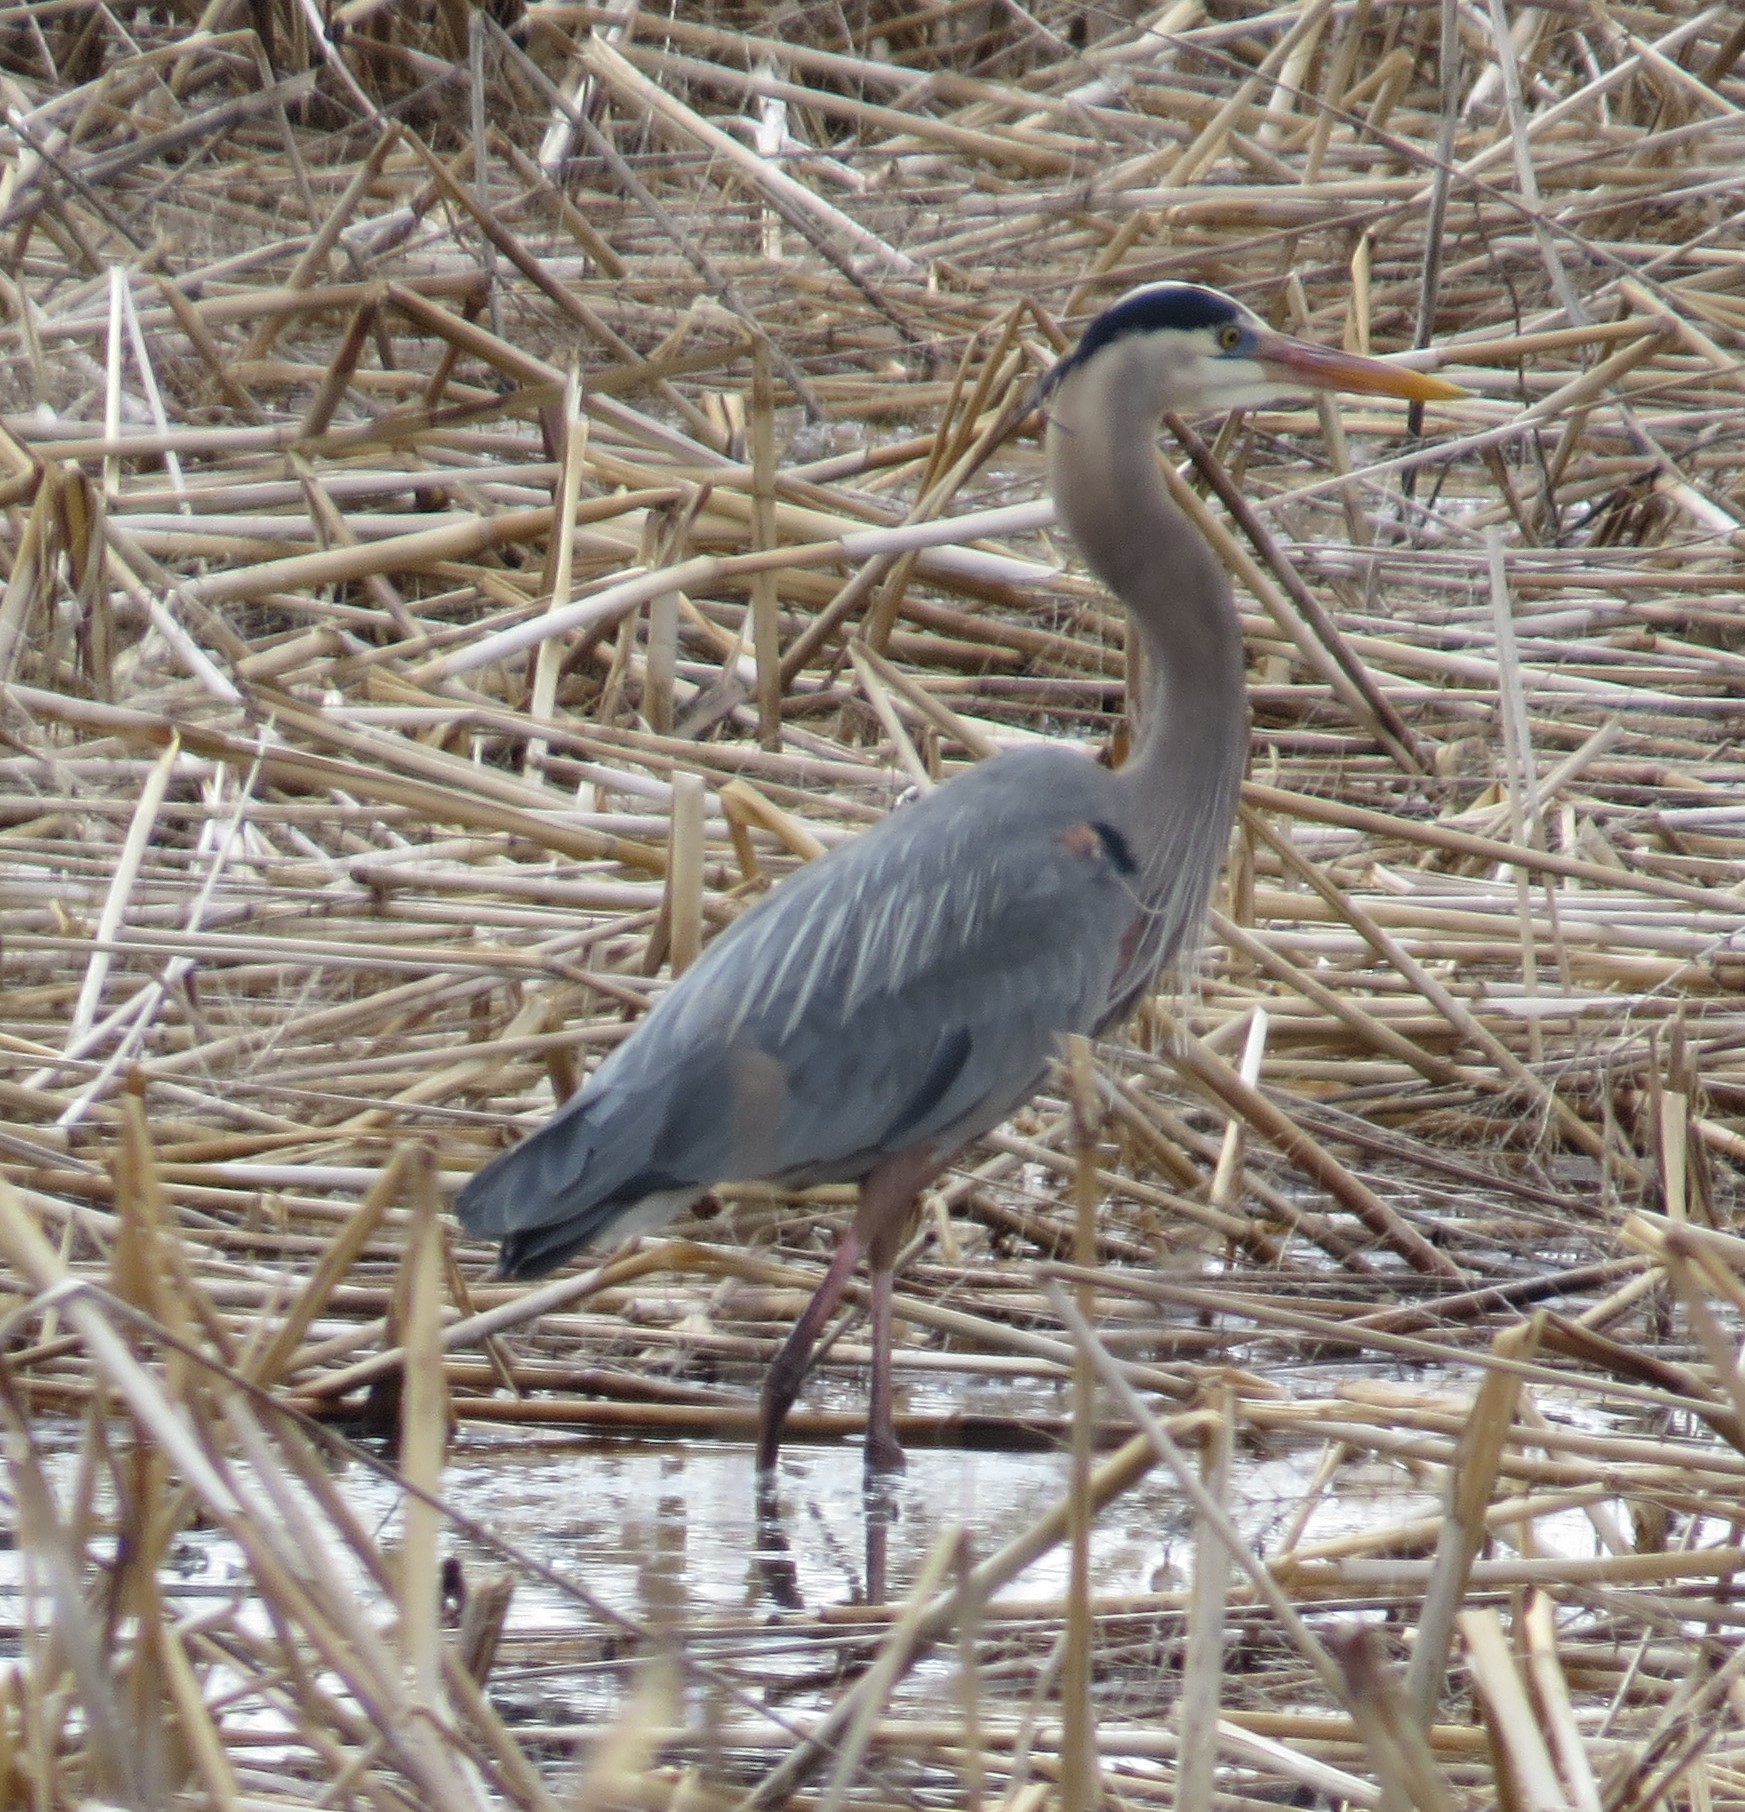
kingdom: Animalia
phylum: Chordata
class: Aves
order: Pelecaniformes
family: Ardeidae
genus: Ardea
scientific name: Ardea herodias
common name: Great blue heron
